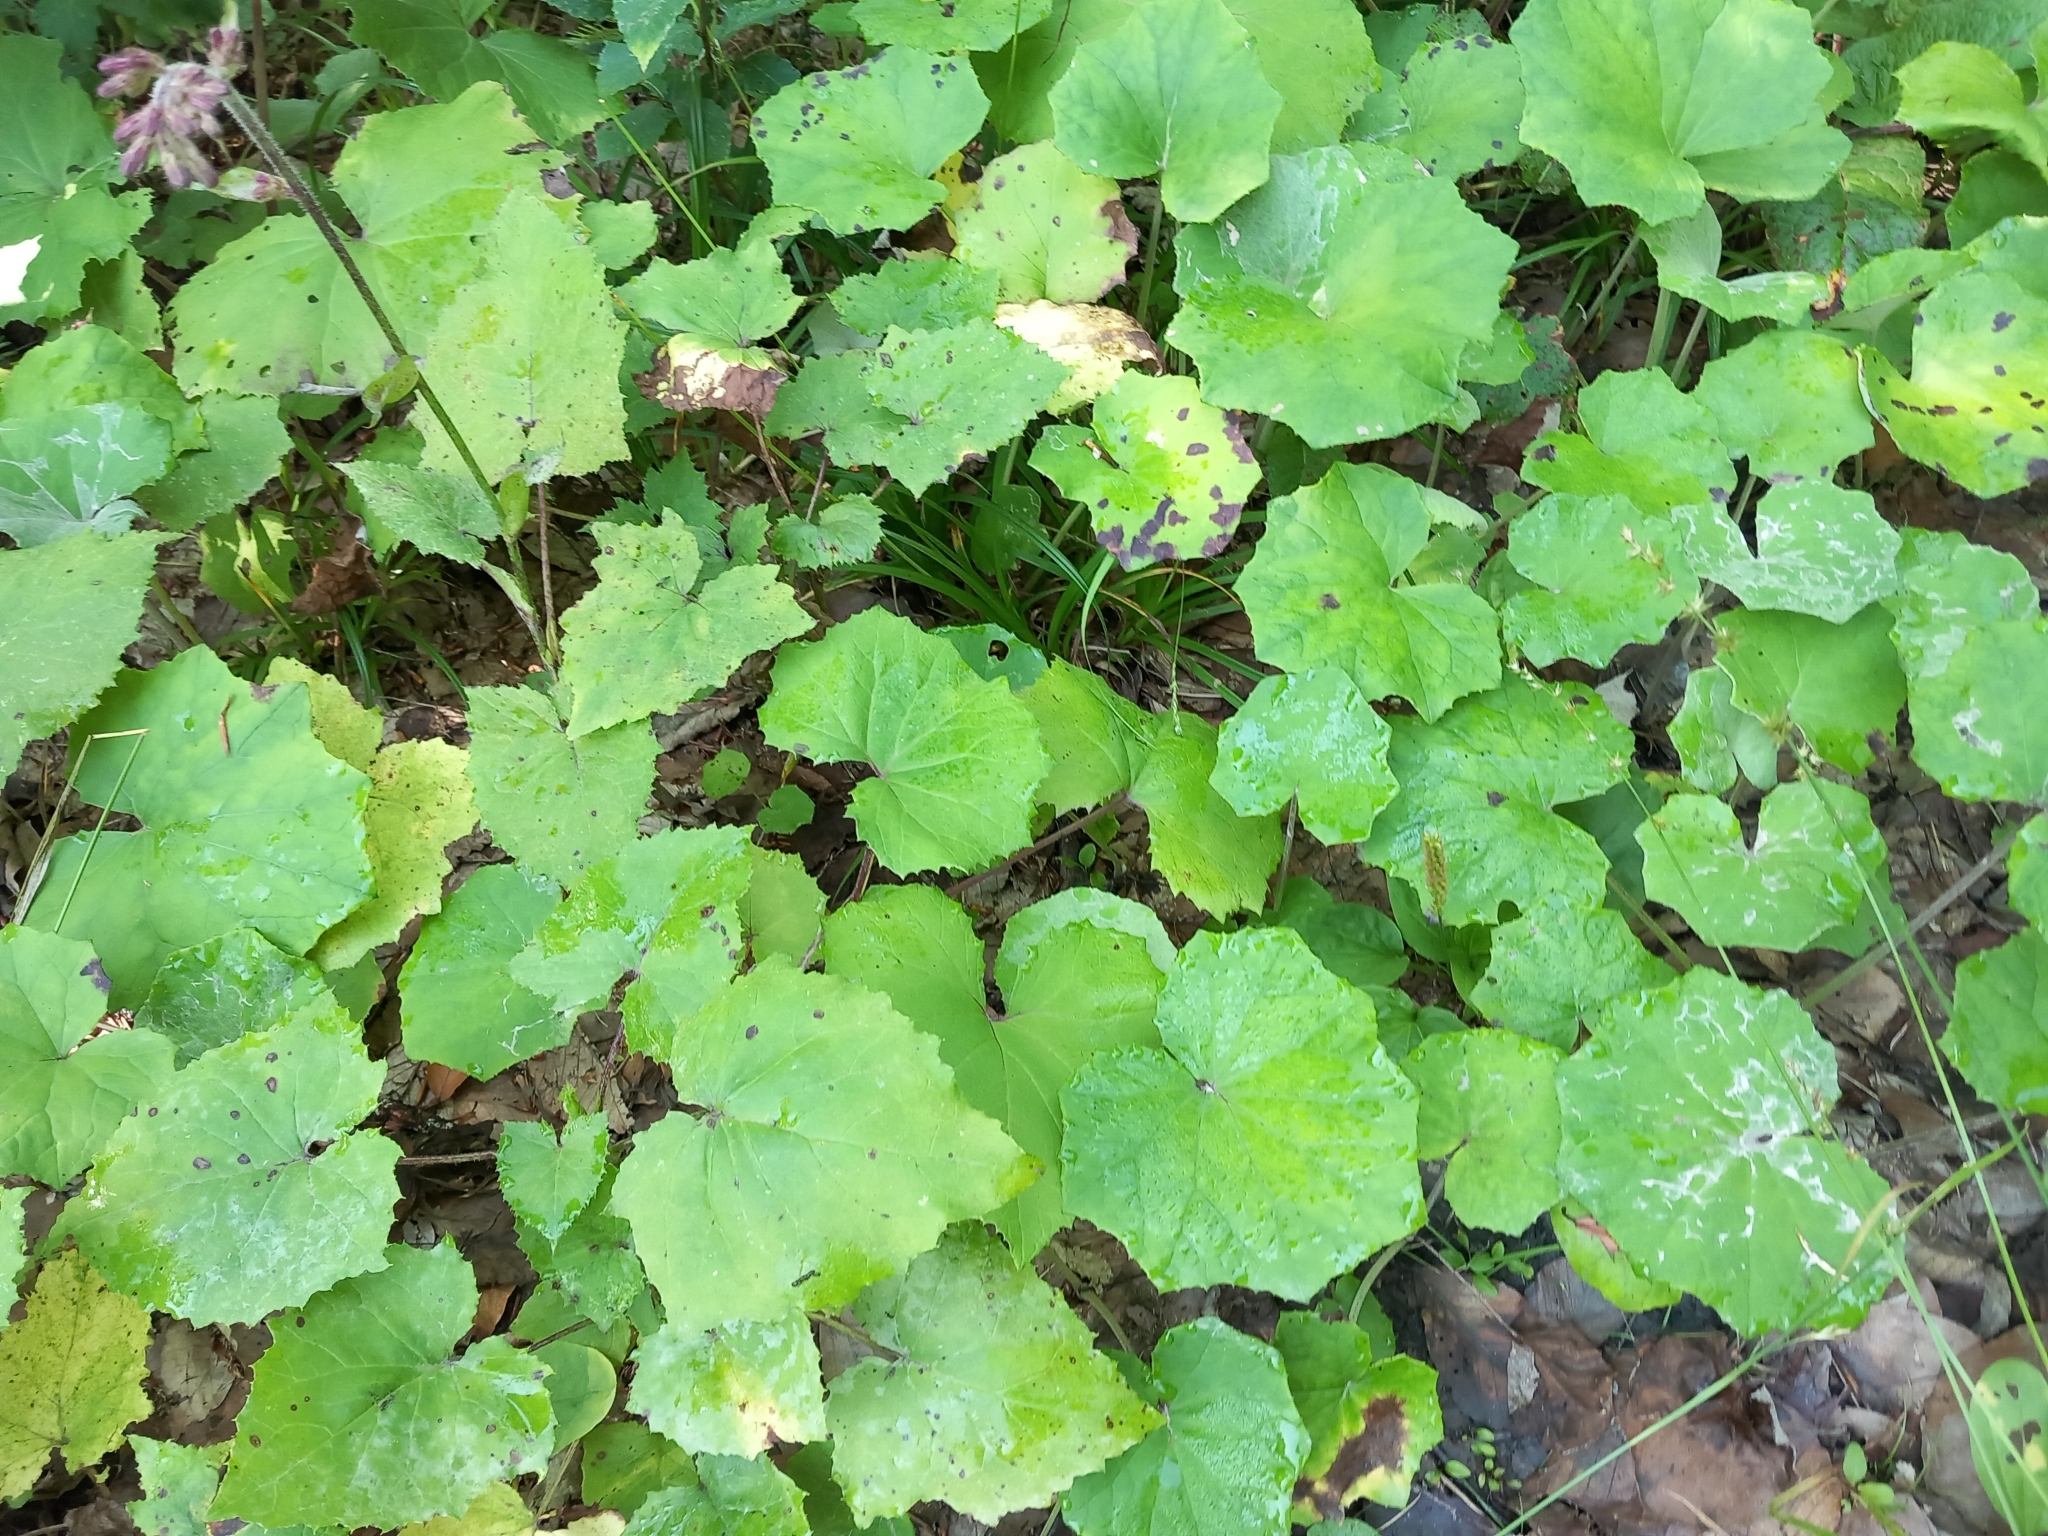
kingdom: Plantae
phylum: Tracheophyta
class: Magnoliopsida
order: Asterales
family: Asteraceae
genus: Tussilago
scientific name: Tussilago farfara
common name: Coltsfoot
